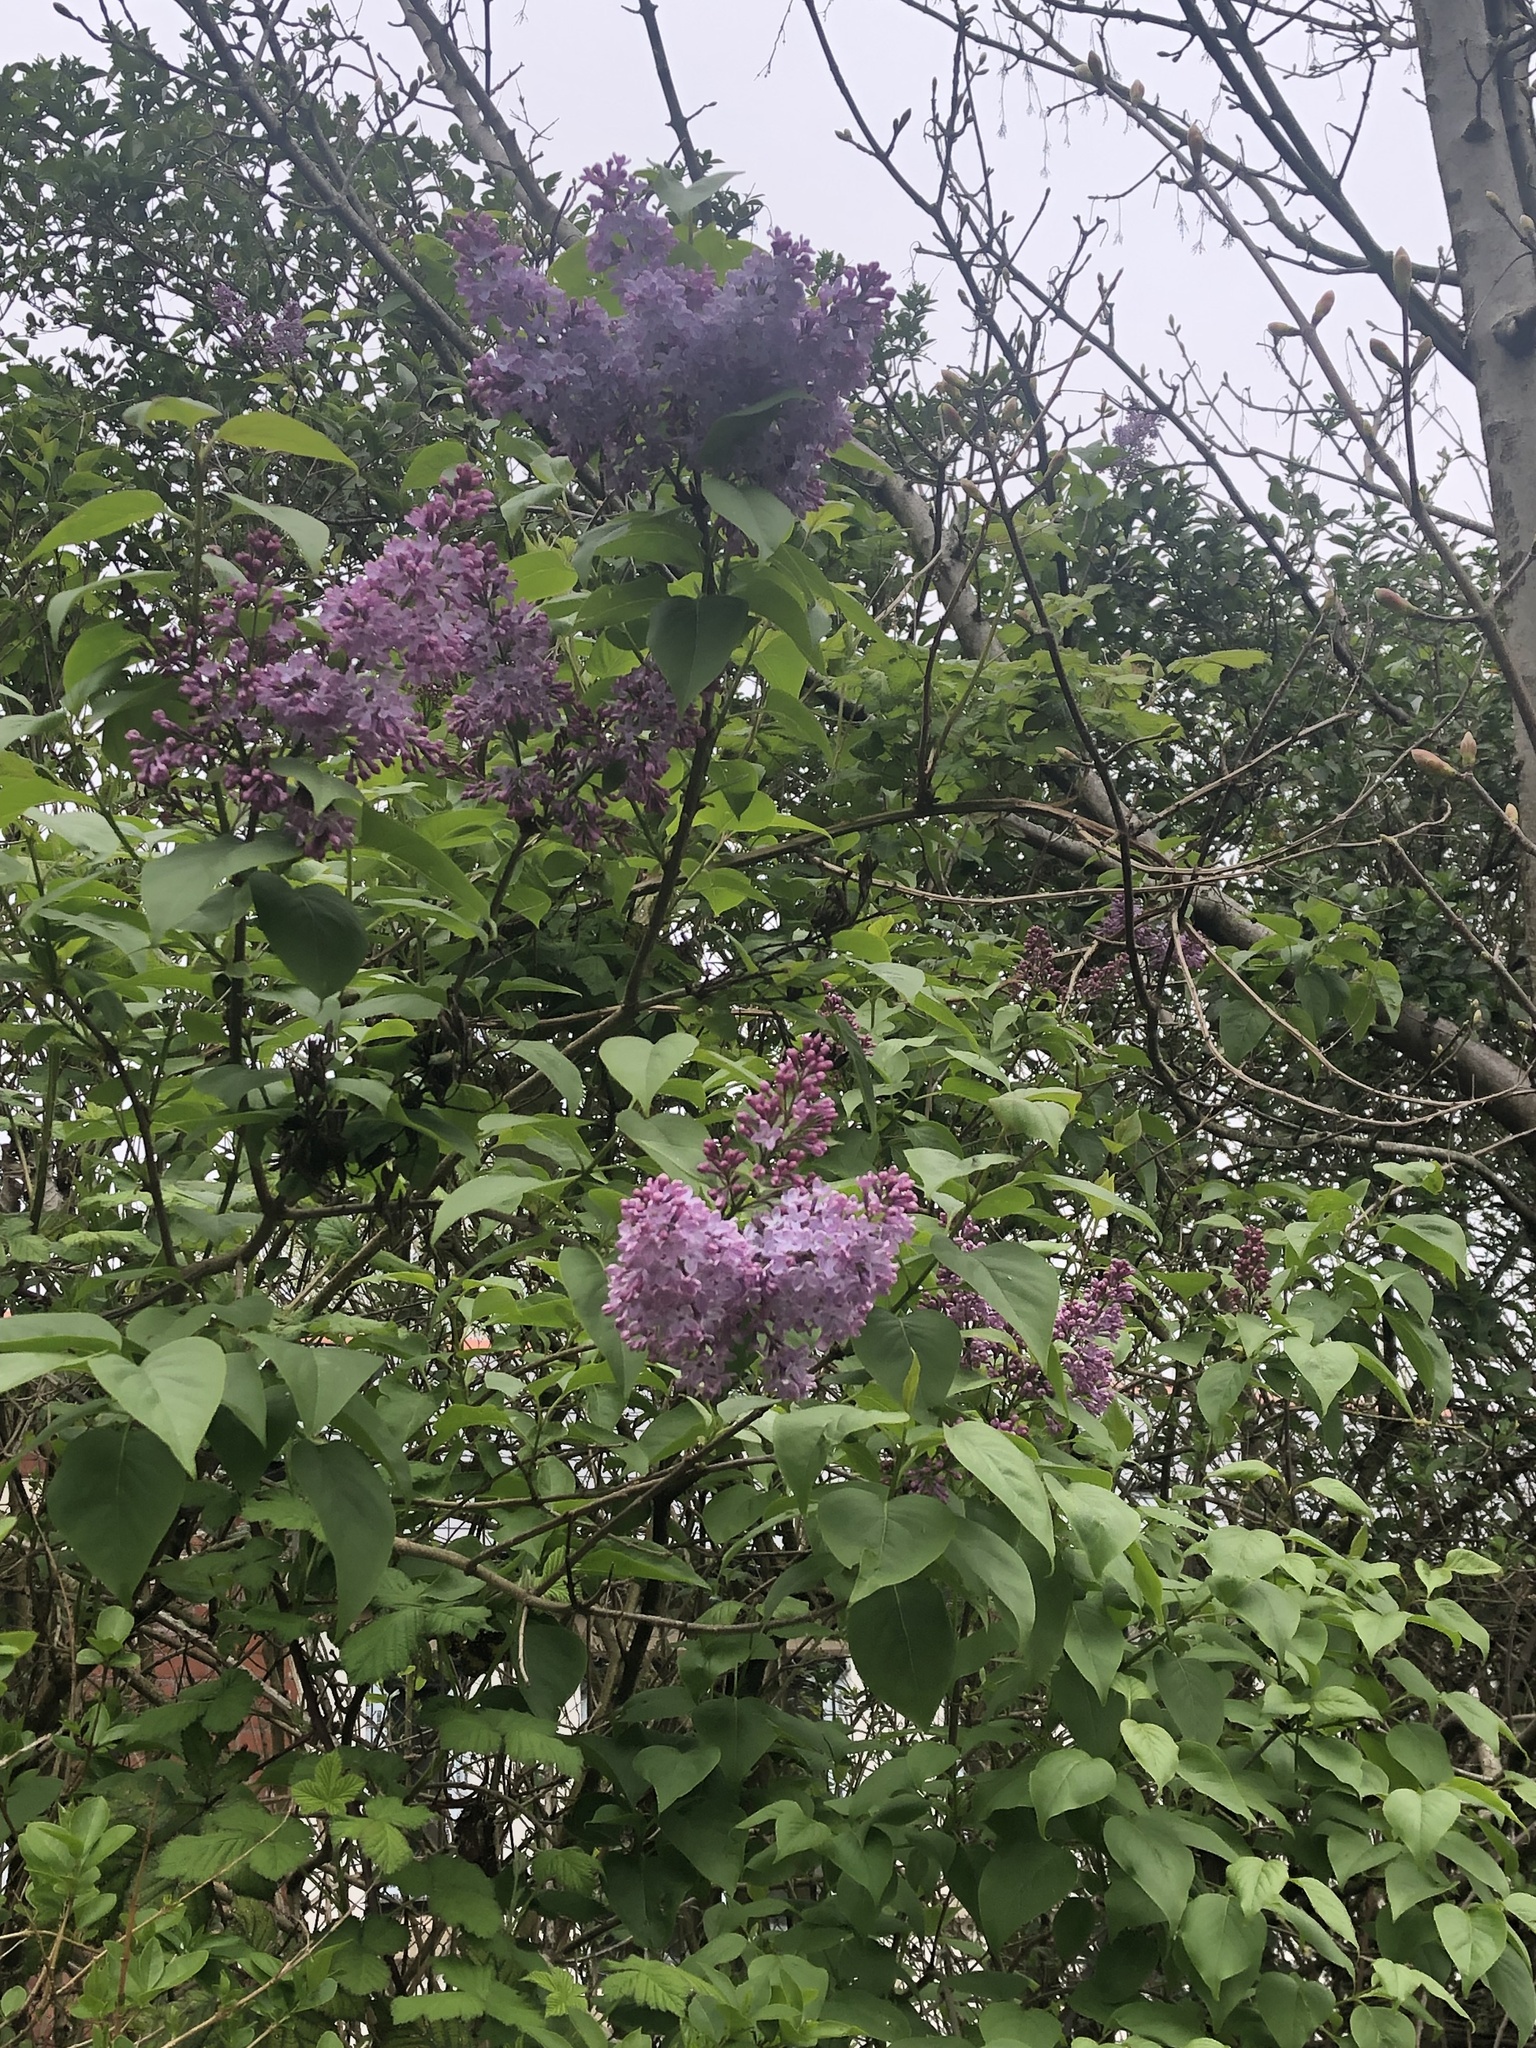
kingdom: Plantae
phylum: Tracheophyta
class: Magnoliopsida
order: Lamiales
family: Oleaceae
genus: Syringa
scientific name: Syringa vulgaris
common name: Common lilac
